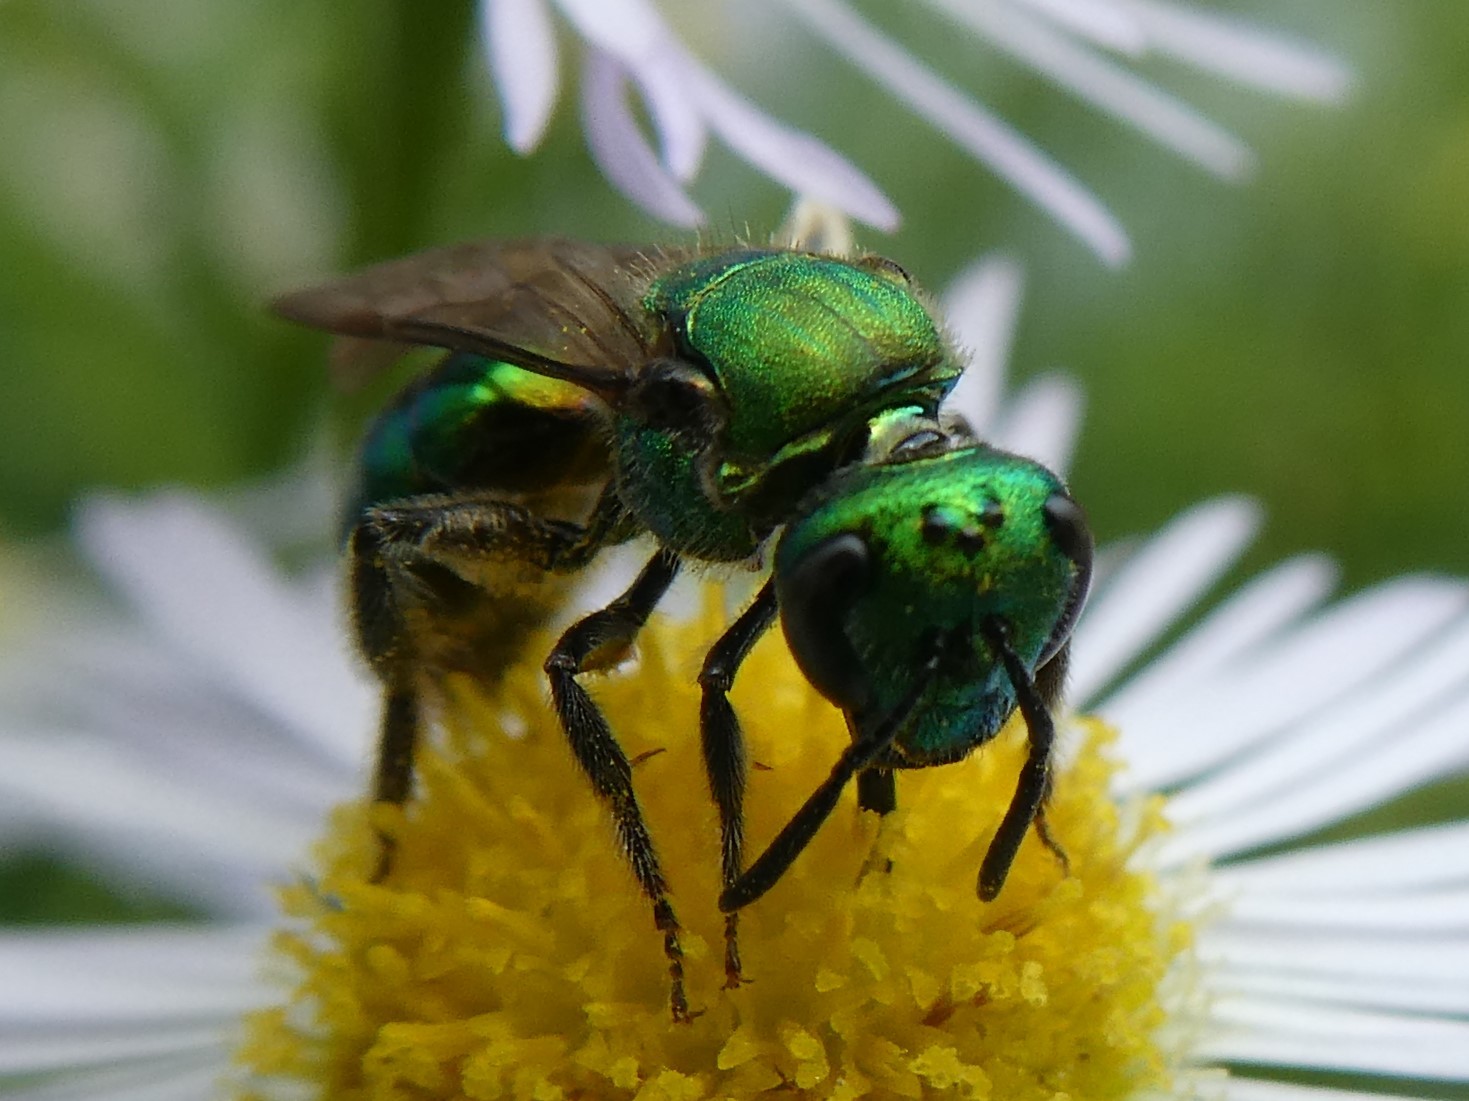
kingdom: Animalia
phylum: Arthropoda
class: Insecta
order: Hymenoptera
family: Halictidae
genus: Augochlora
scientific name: Augochlora pura
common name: Pure green sweat bee
